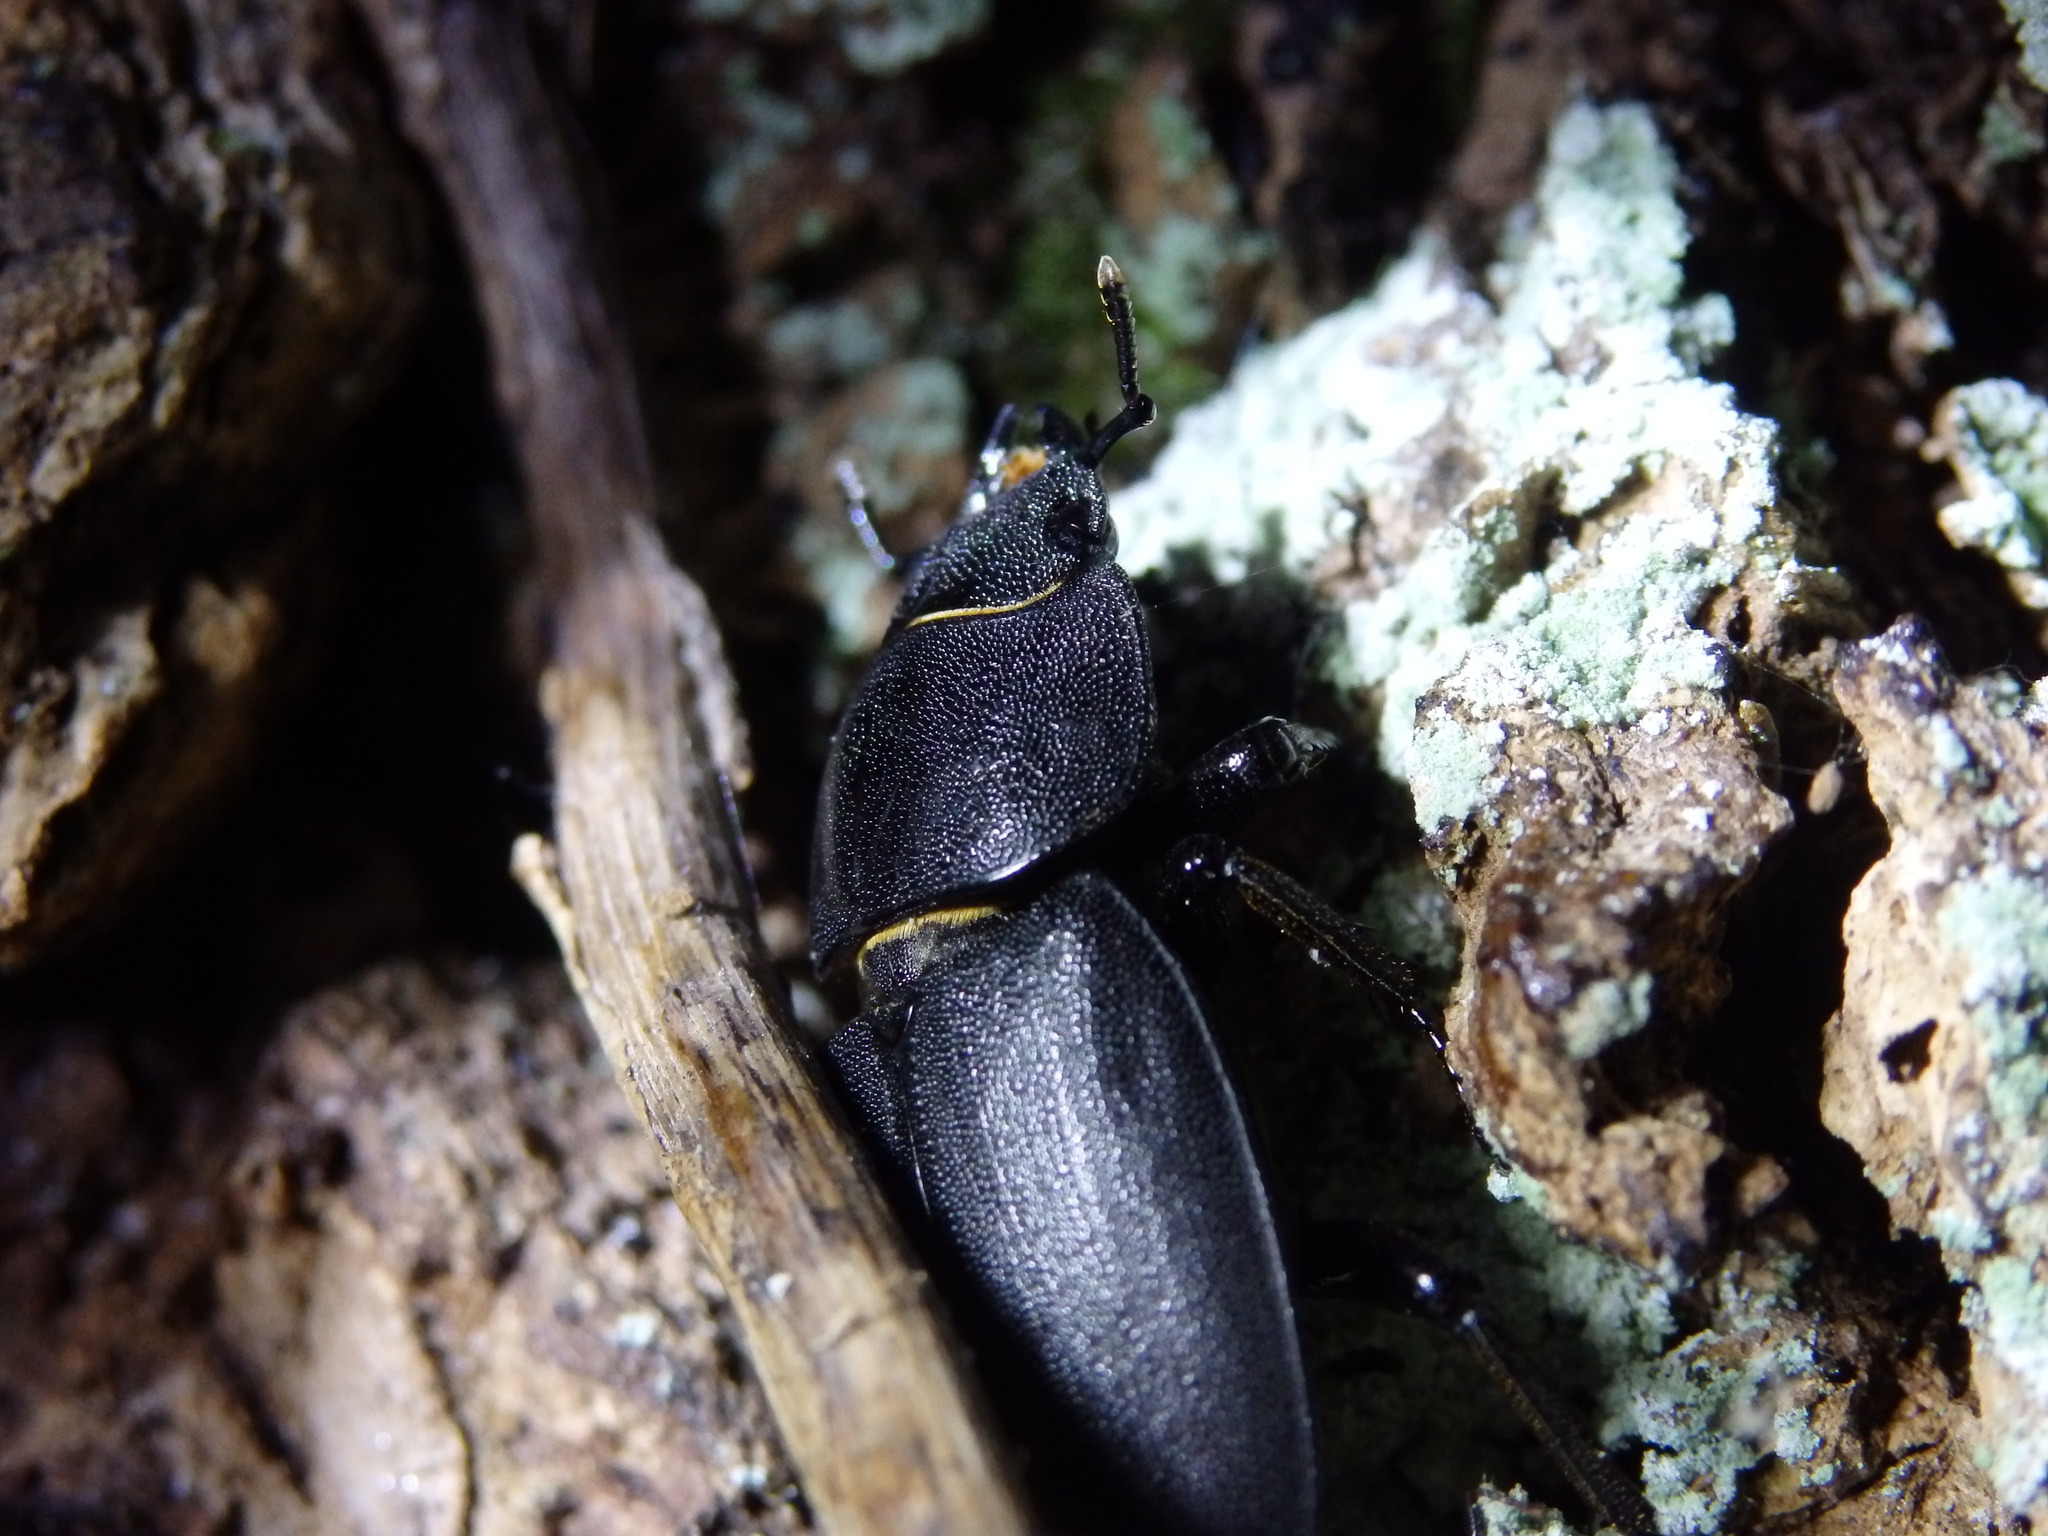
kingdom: Animalia
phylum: Arthropoda
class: Insecta
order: Coleoptera
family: Lucanidae
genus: Dorcus
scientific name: Dorcus parallelipipedus
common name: Lesser stag beetle
